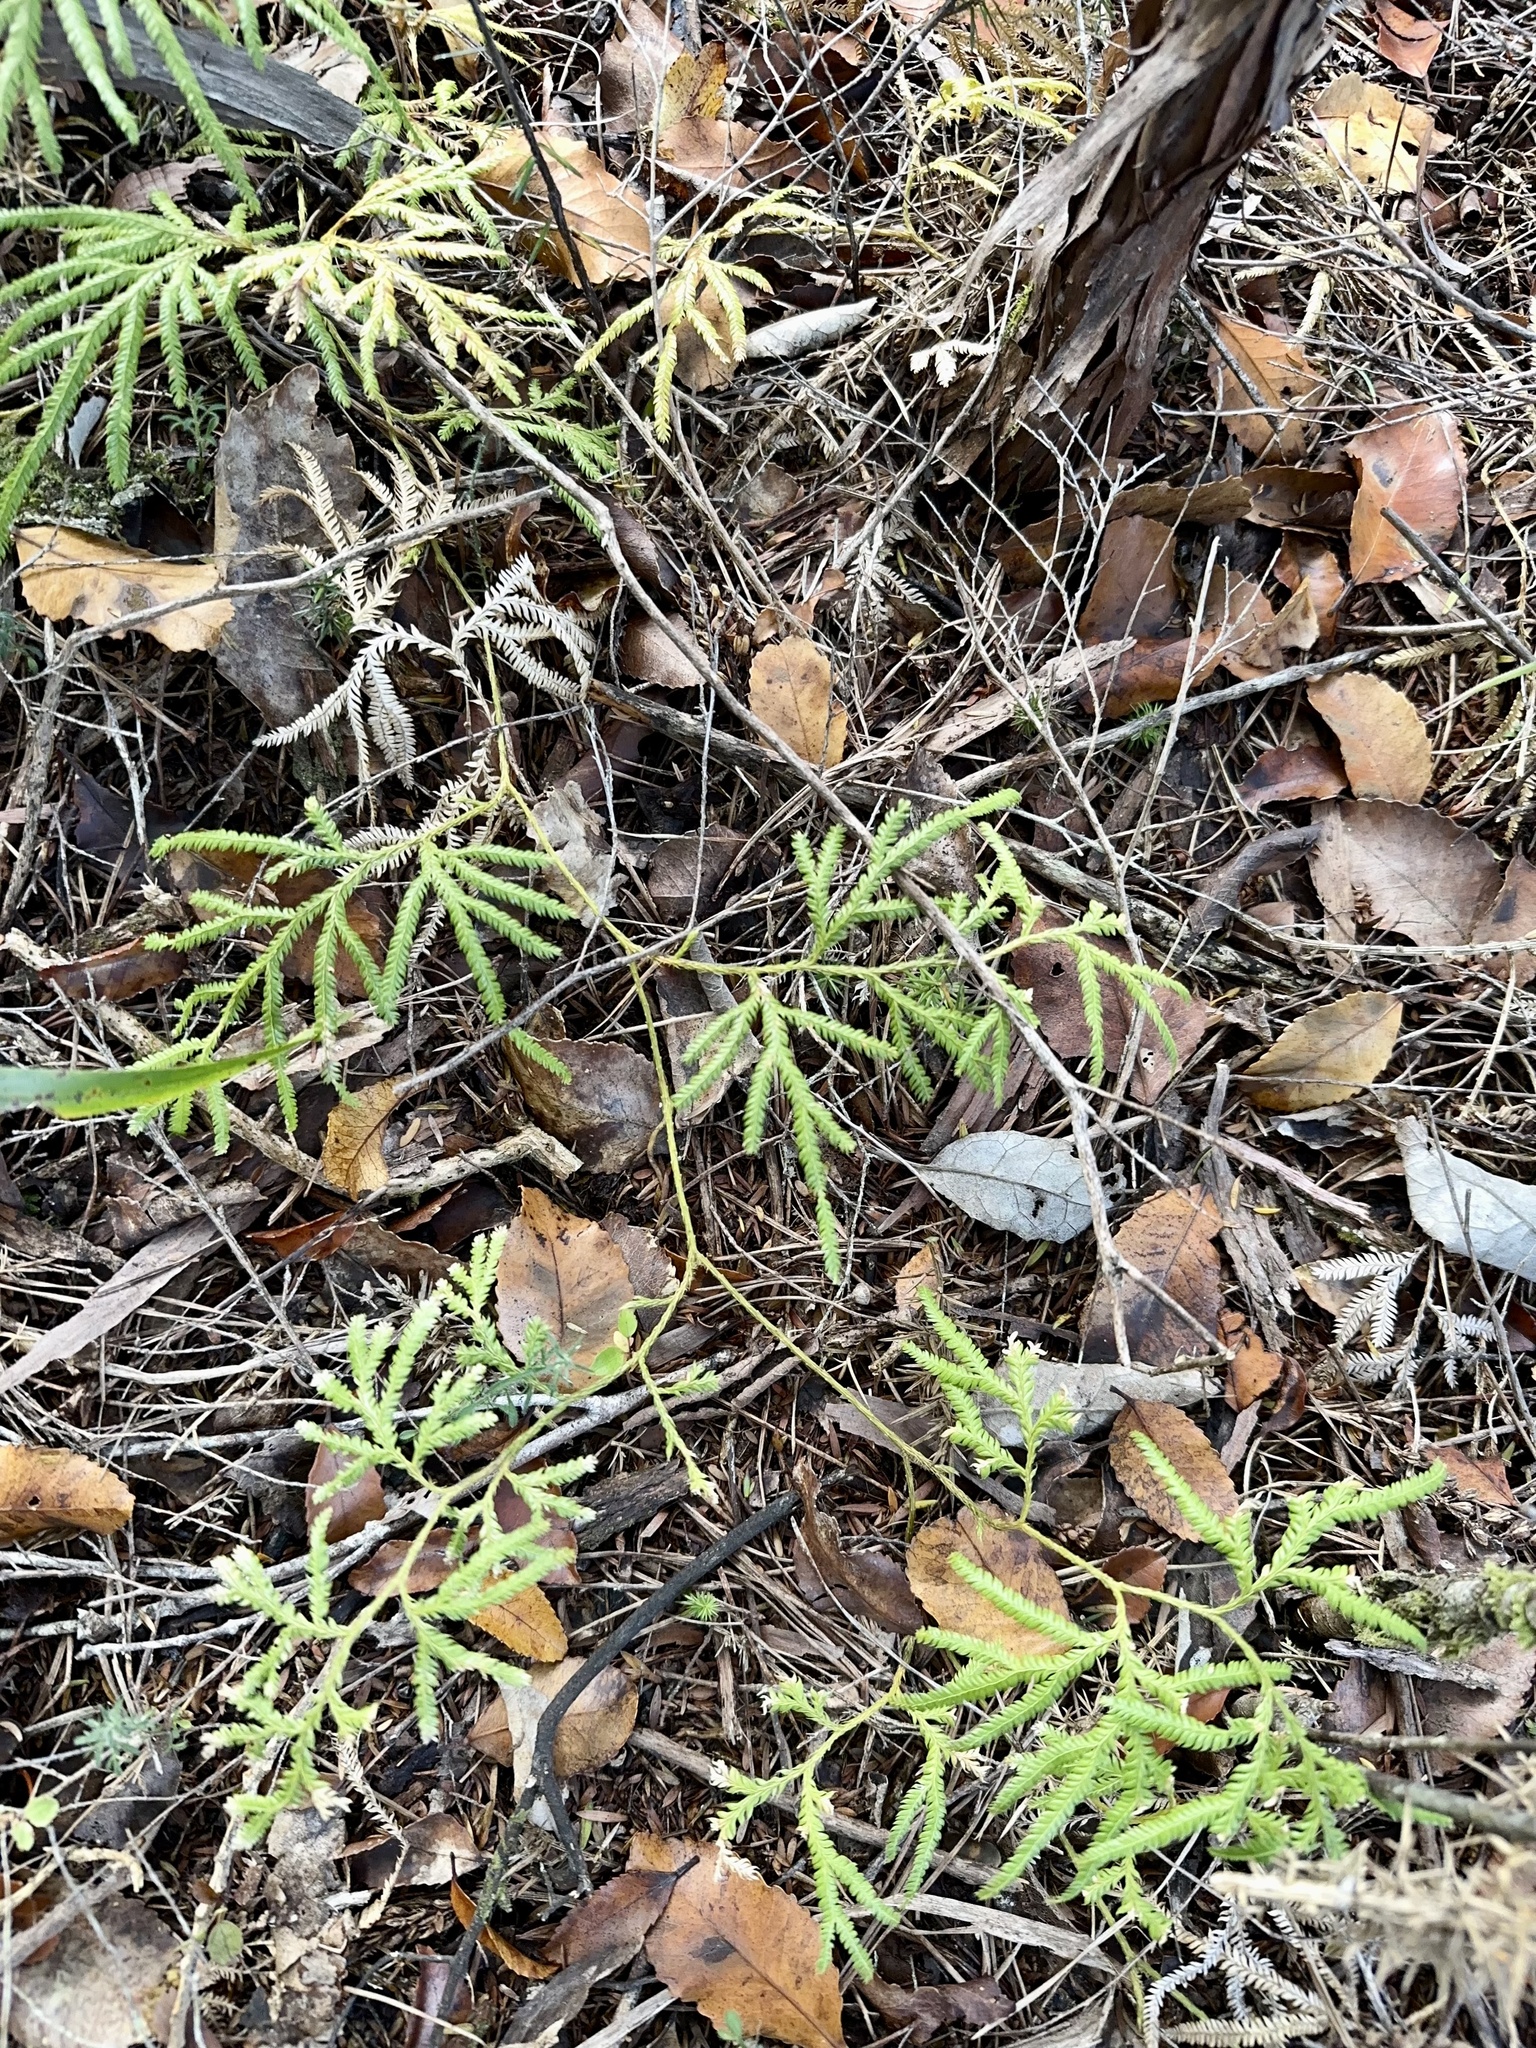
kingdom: Plantae
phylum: Tracheophyta
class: Lycopodiopsida
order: Lycopodiales
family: Lycopodiaceae
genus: Lycopodium
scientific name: Lycopodium volubile
